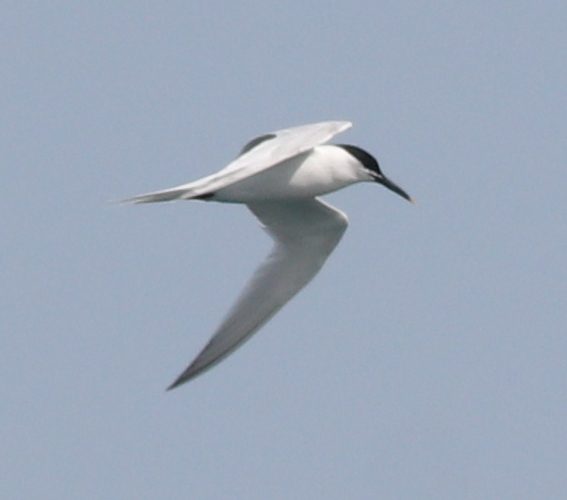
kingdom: Animalia
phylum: Chordata
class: Aves
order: Charadriiformes
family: Laridae
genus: Thalasseus
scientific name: Thalasseus sandvicensis
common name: Sandwich tern
